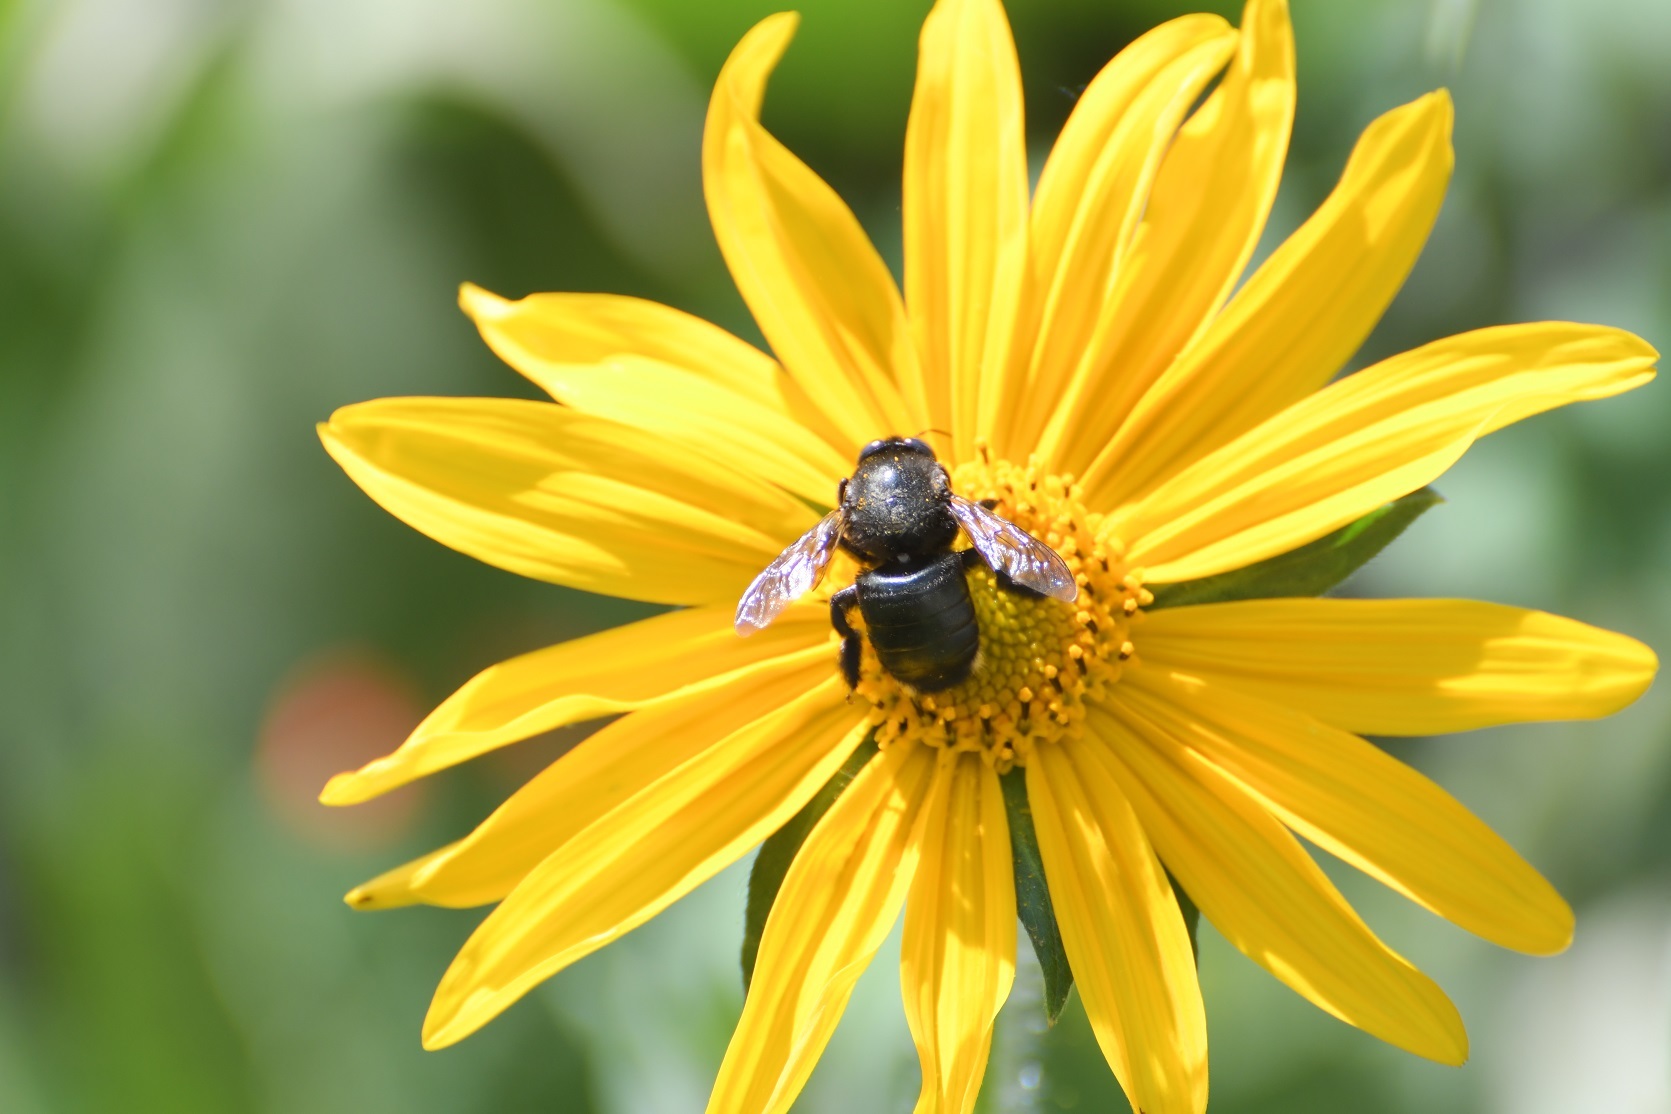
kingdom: Animalia
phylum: Arthropoda
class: Insecta
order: Hymenoptera
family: Apidae
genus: Xylocopa
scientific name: Xylocopa lateralis
